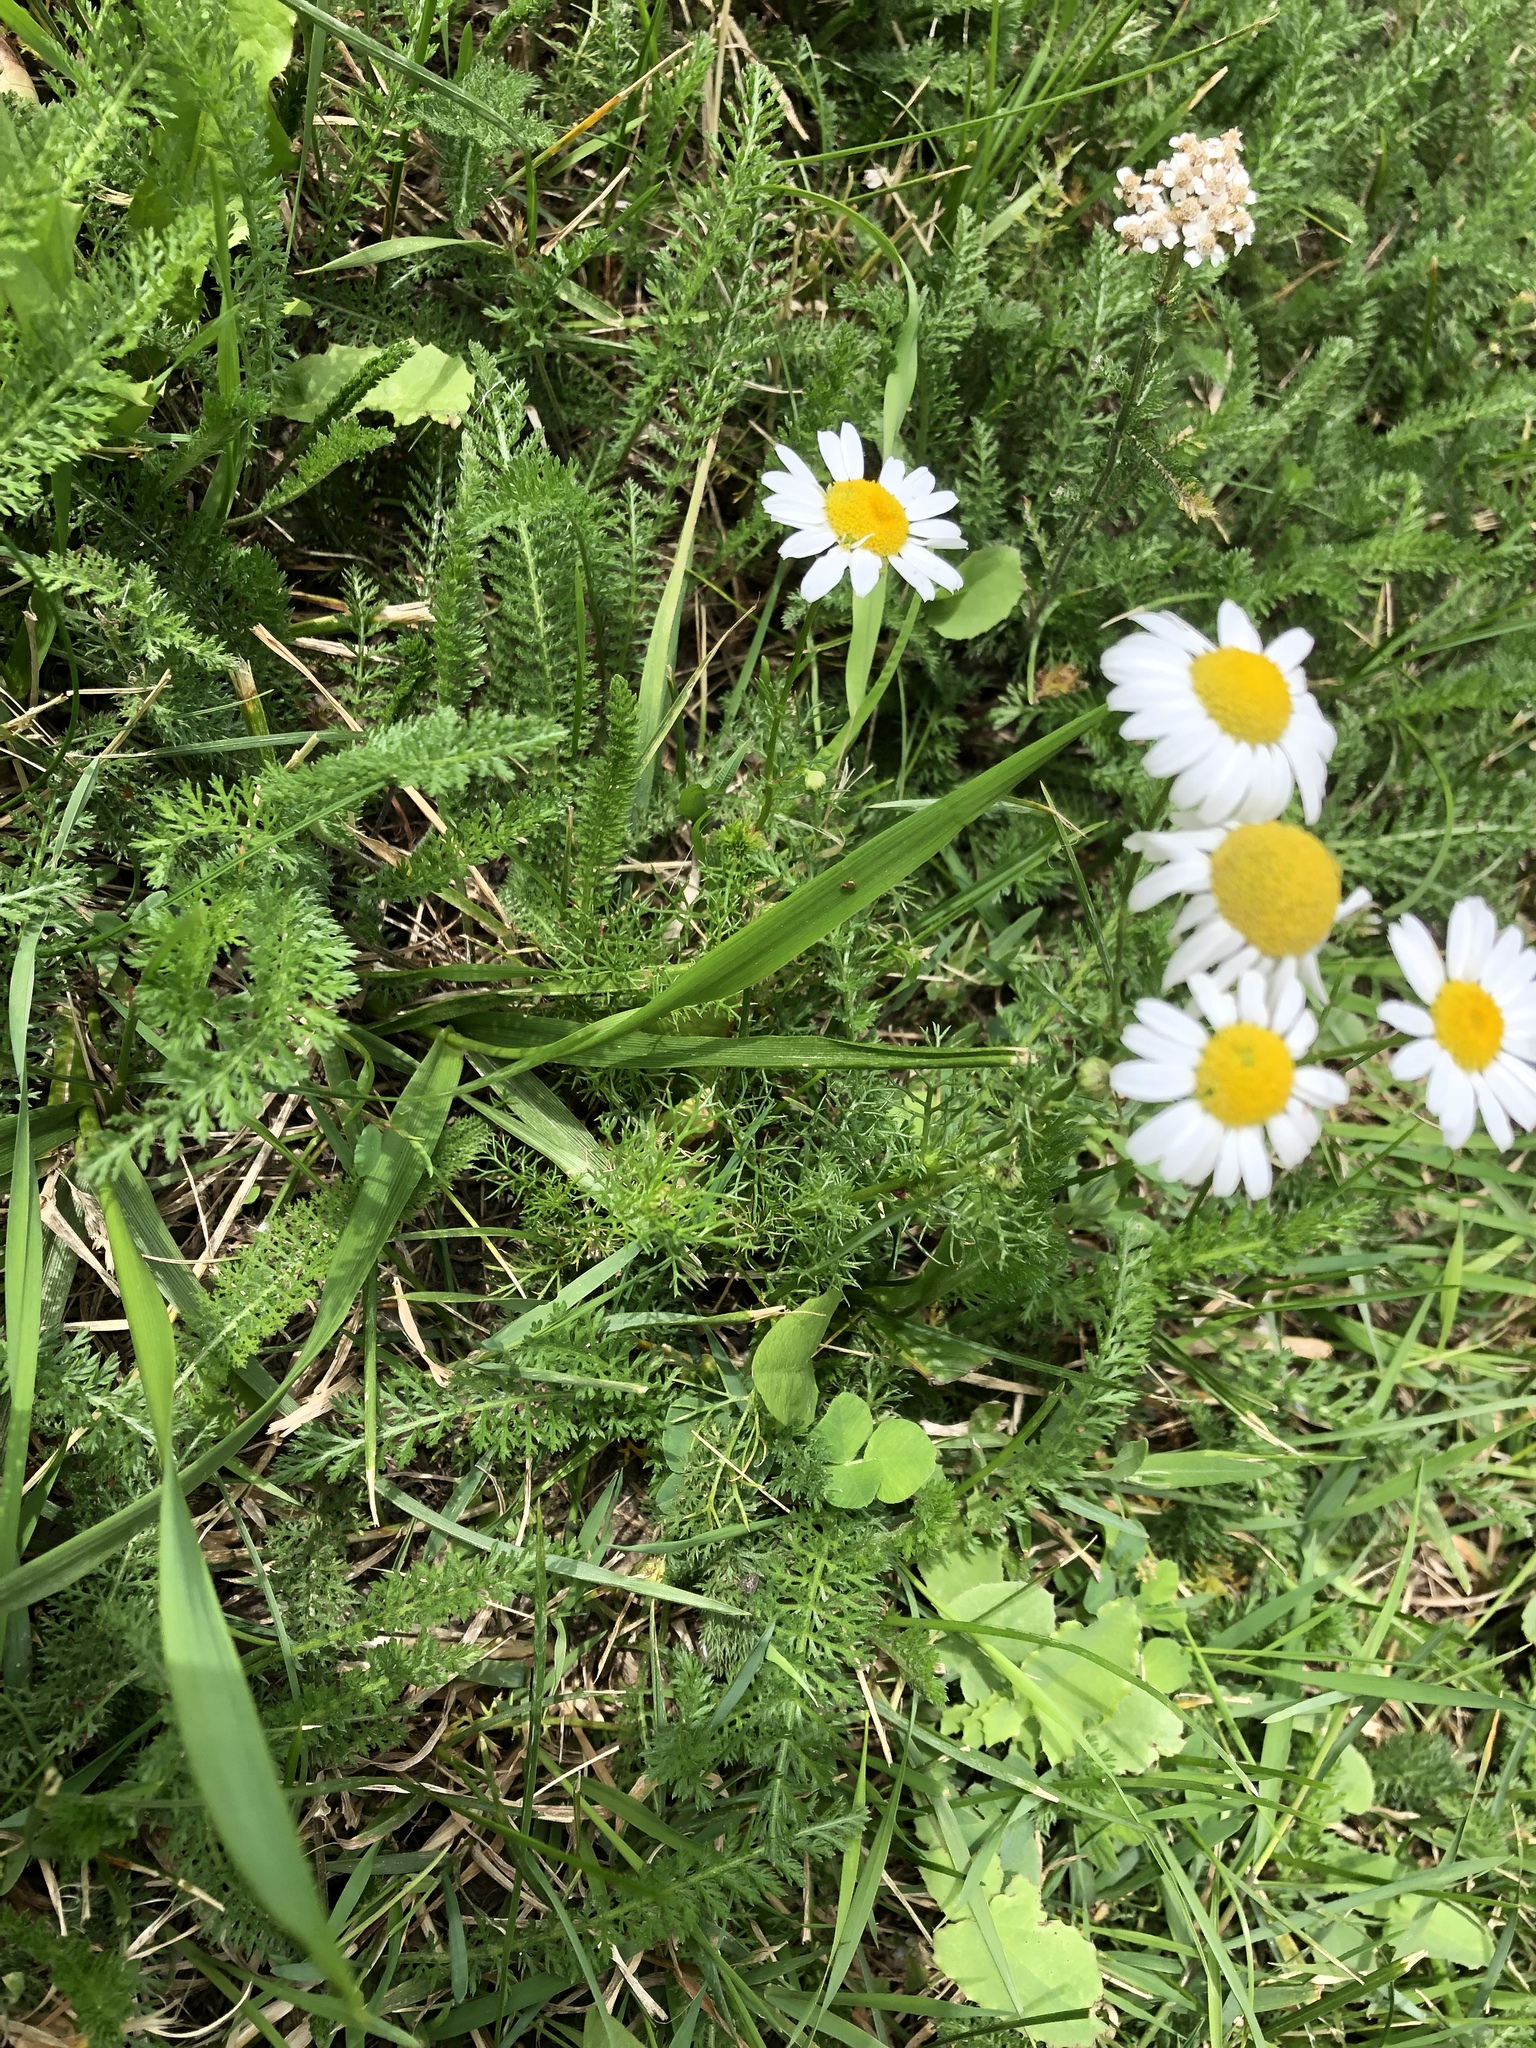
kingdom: Plantae
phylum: Tracheophyta
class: Magnoliopsida
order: Asterales
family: Asteraceae
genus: Tripleurospermum
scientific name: Tripleurospermum inodorum
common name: Scentless mayweed
